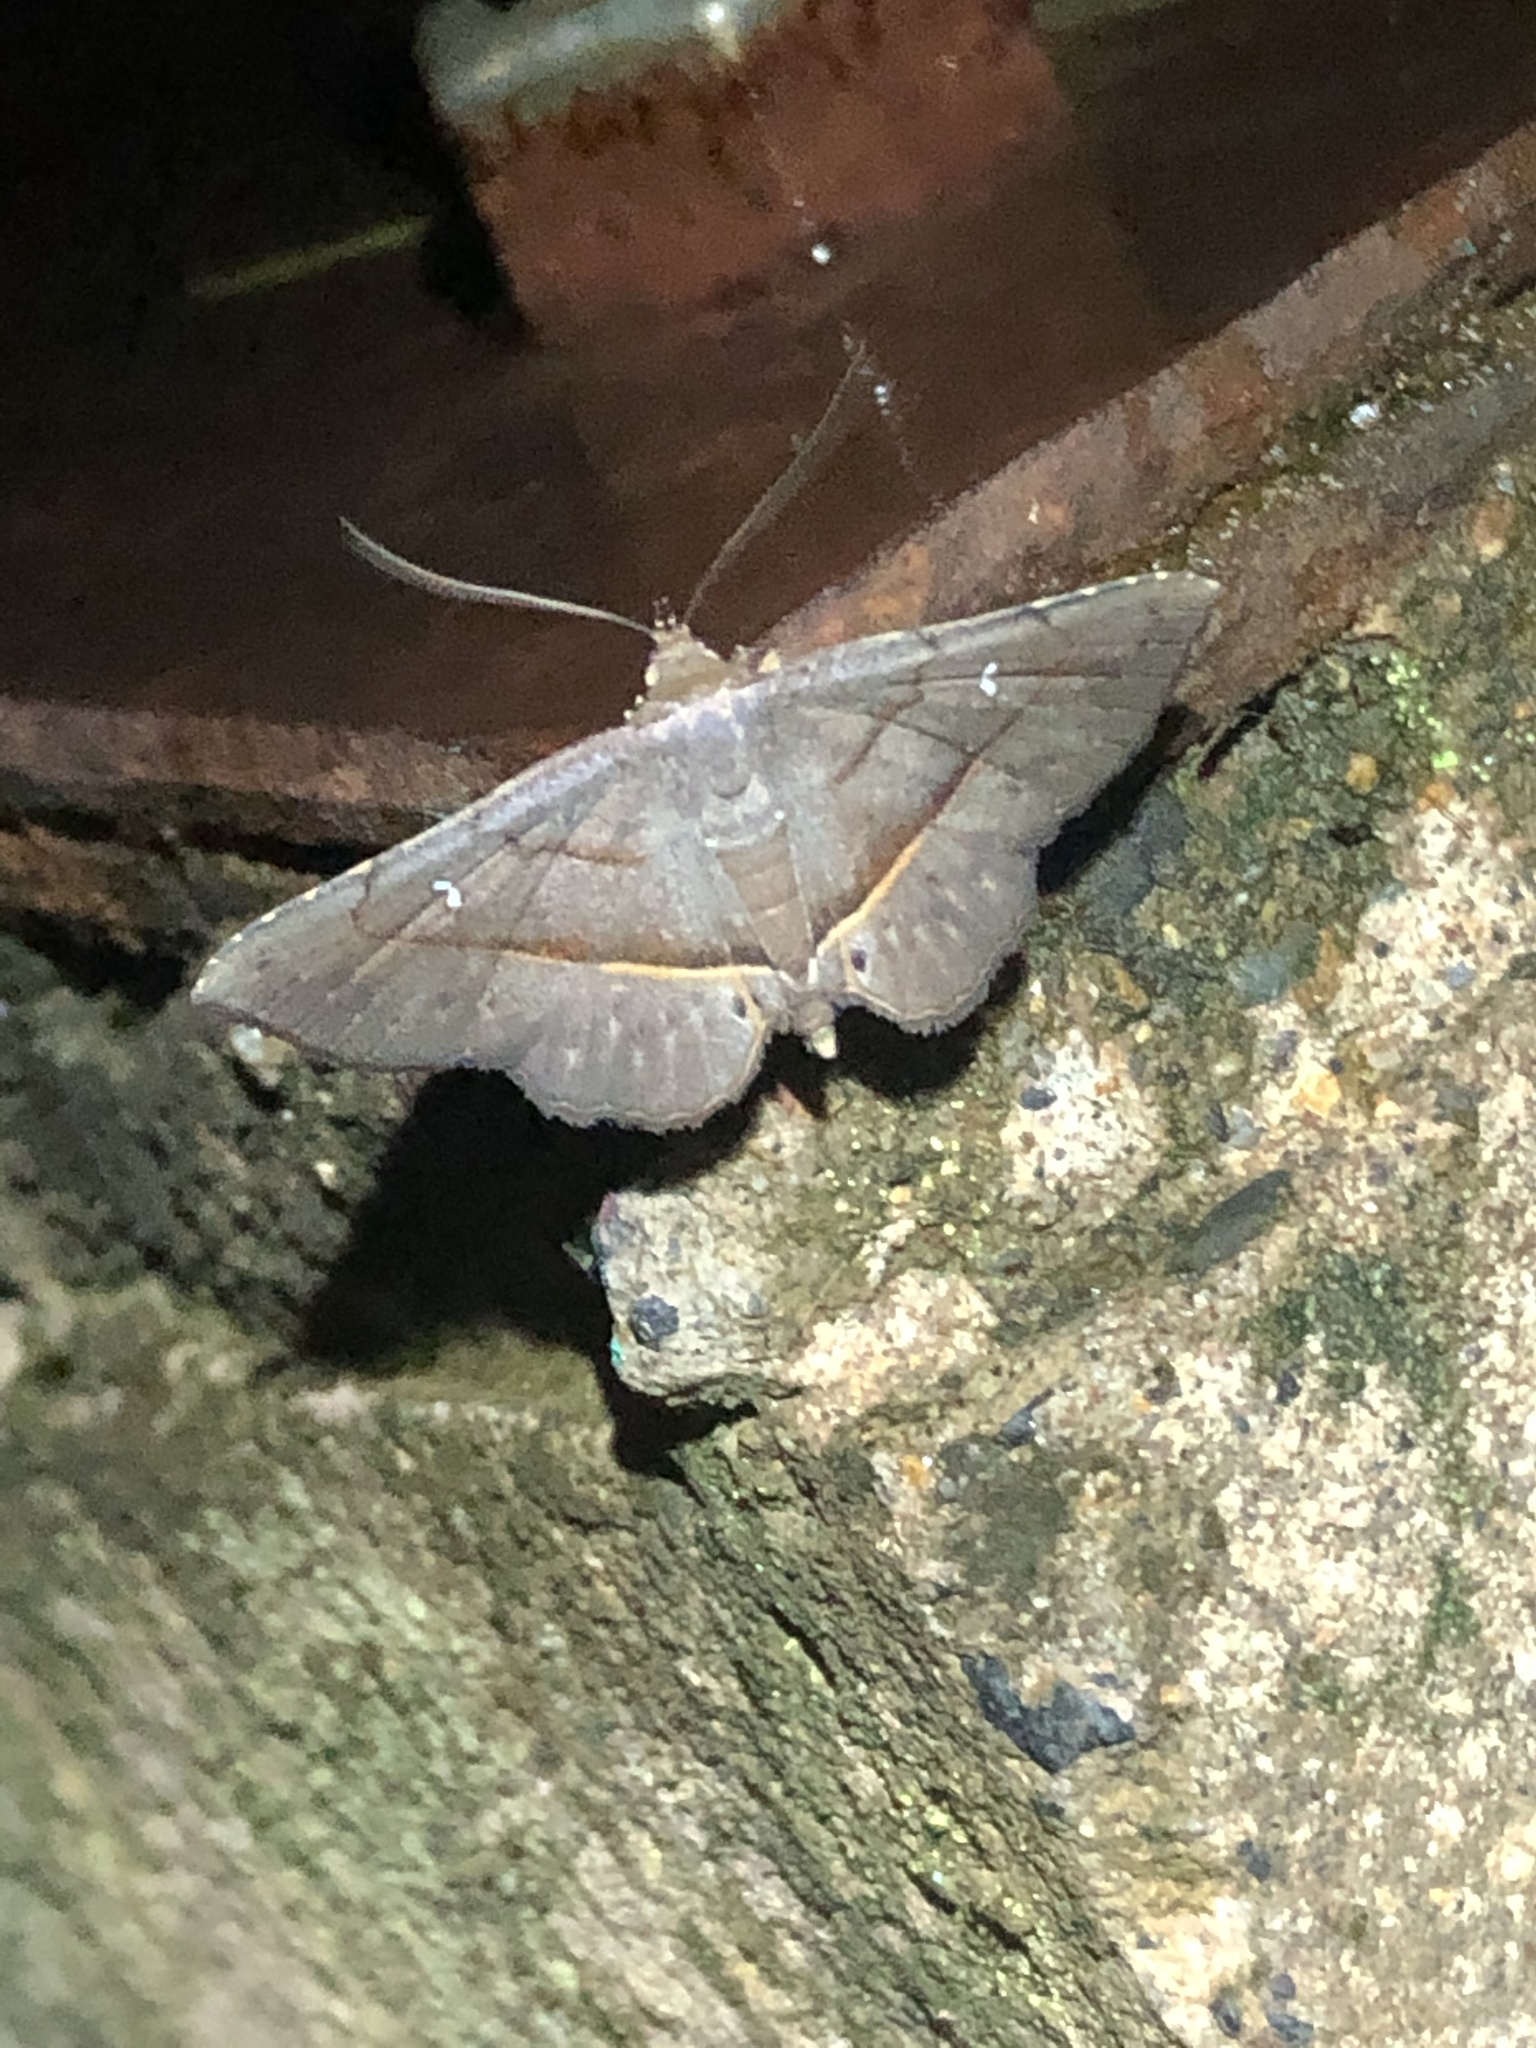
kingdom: Animalia
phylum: Arthropoda
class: Insecta
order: Lepidoptera
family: Erebidae
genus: Renodes
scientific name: Renodes vulgaris
